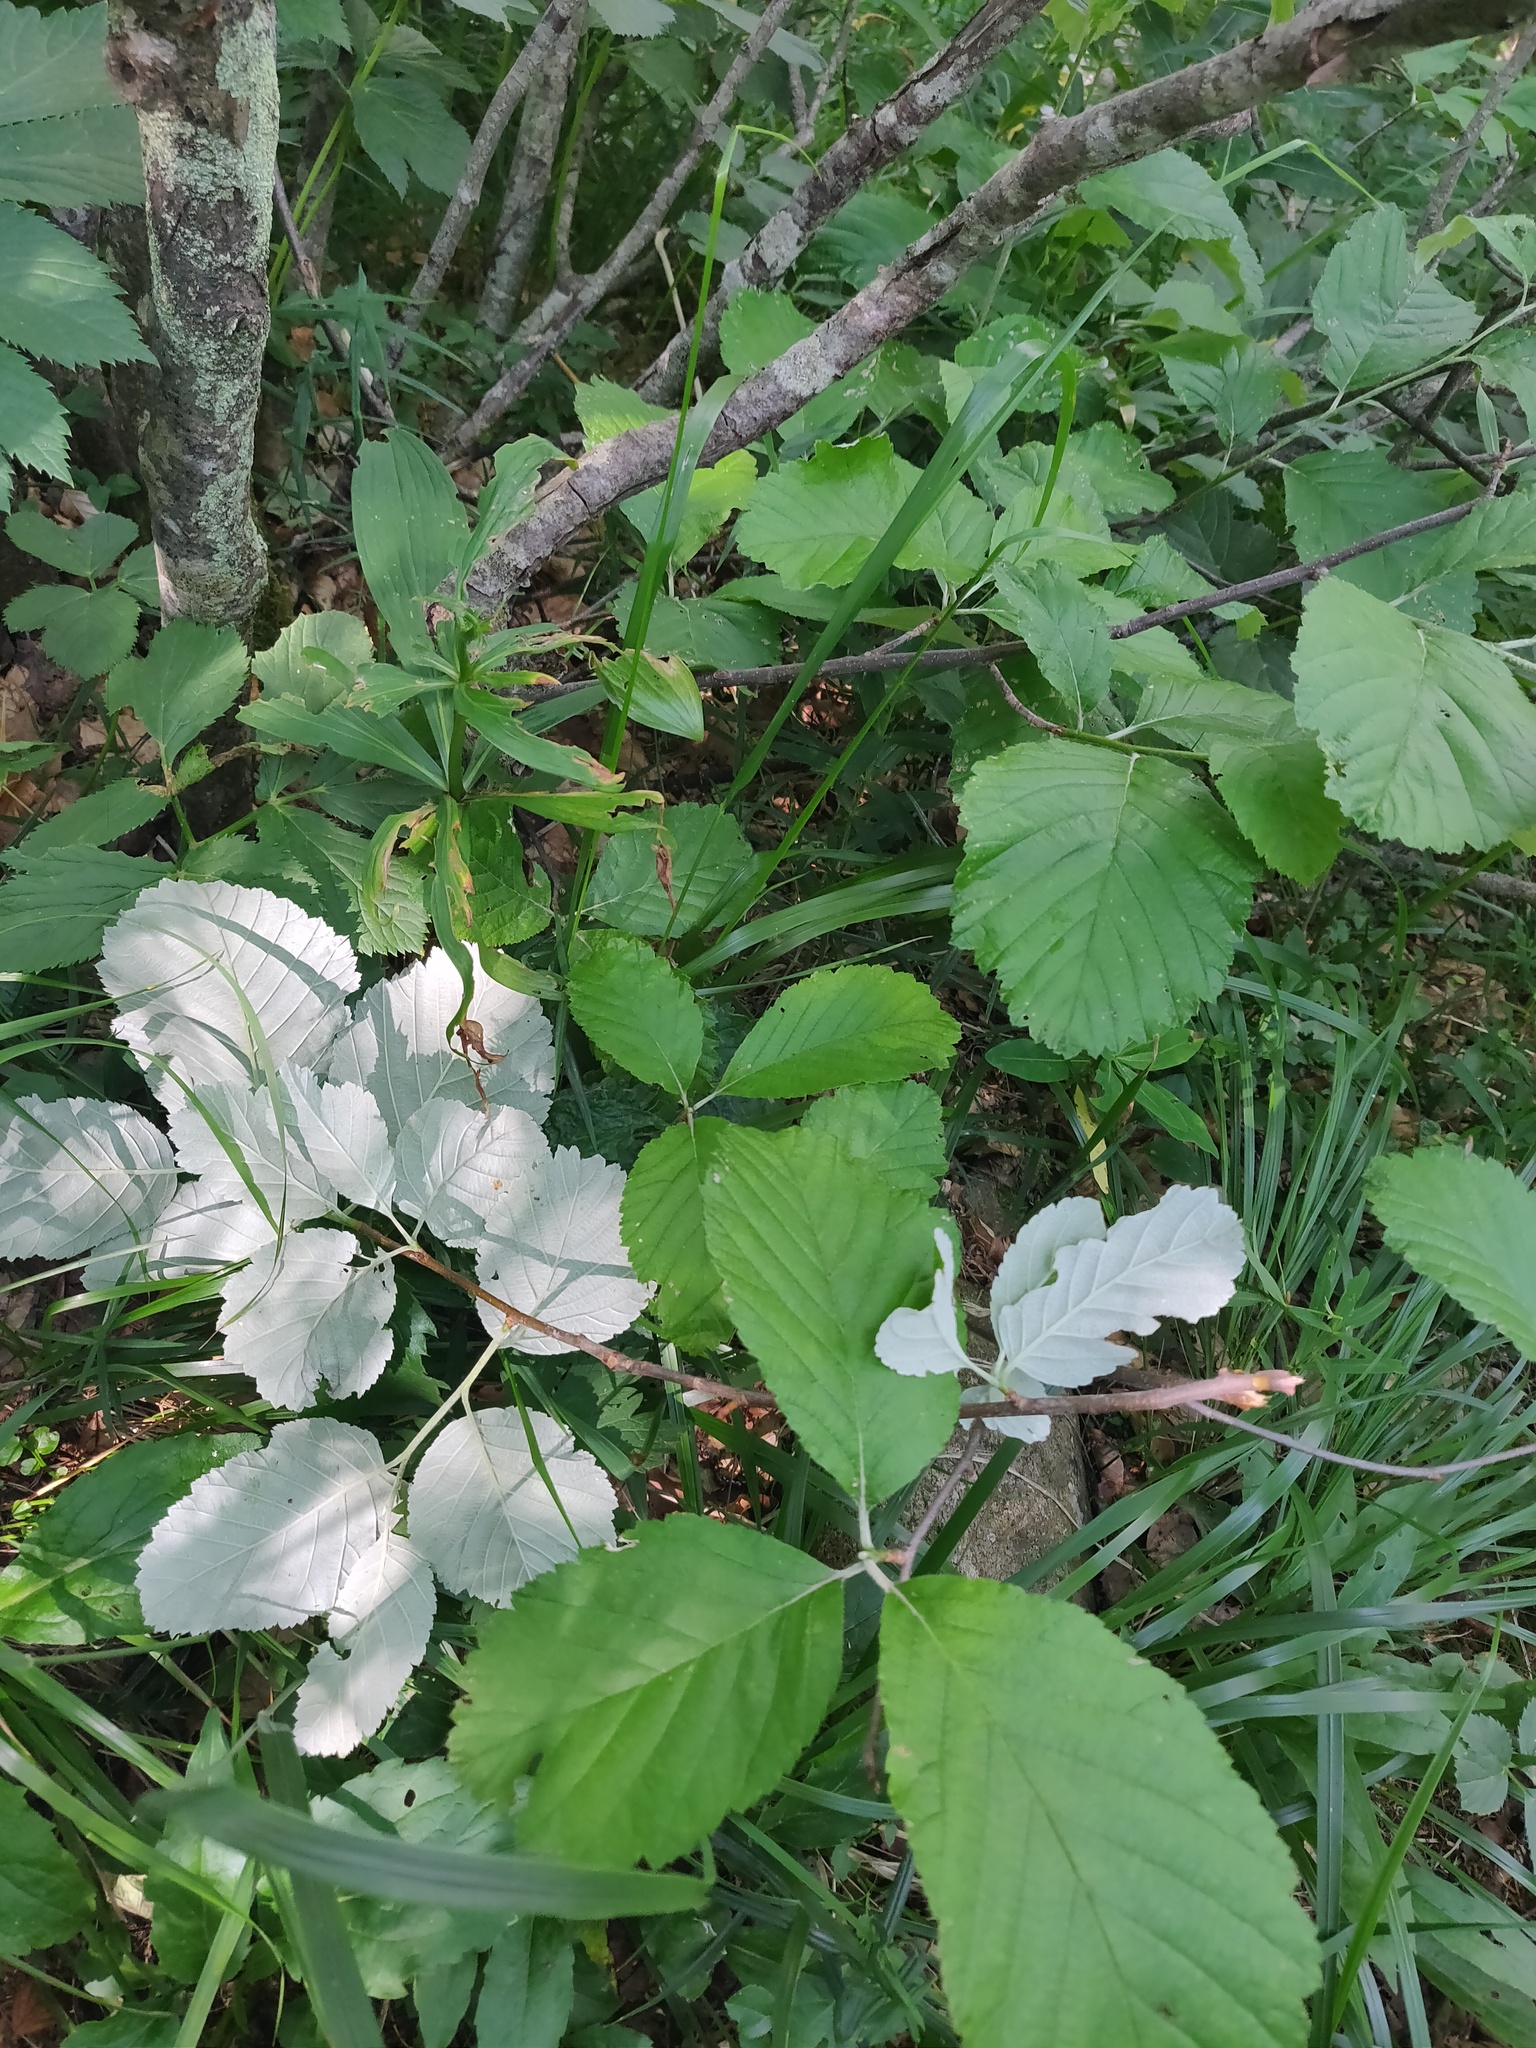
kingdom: Plantae
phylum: Tracheophyta
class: Magnoliopsida
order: Rosales
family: Rosaceae
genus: Aria
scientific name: Aria edulis
